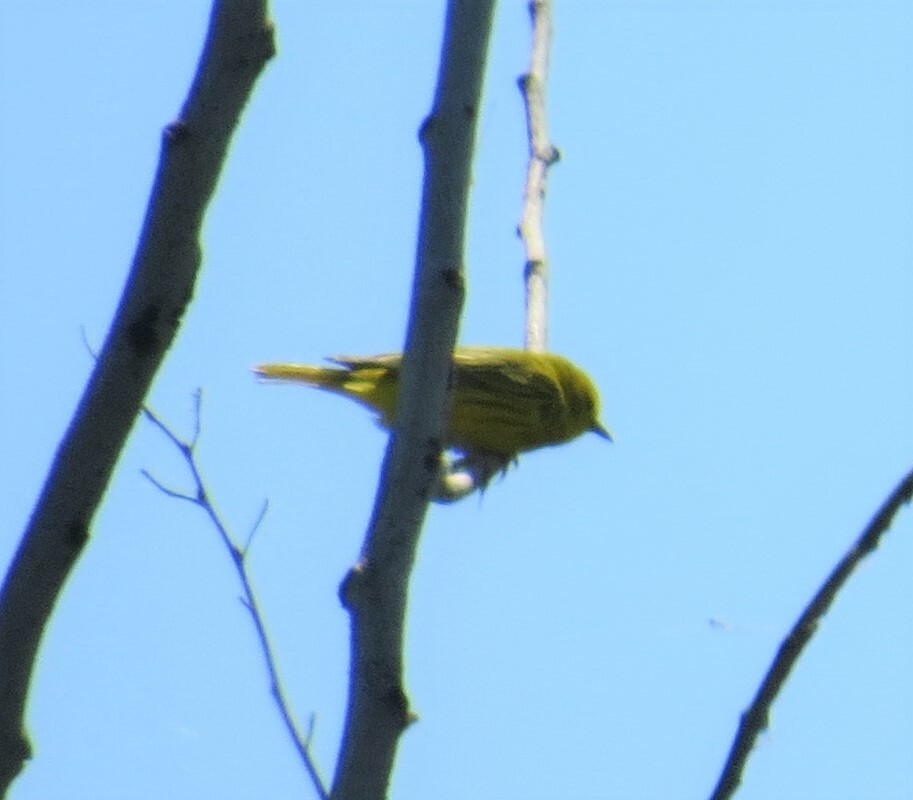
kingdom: Animalia
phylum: Chordata
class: Aves
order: Passeriformes
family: Parulidae
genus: Setophaga
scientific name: Setophaga petechia
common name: Yellow warbler
